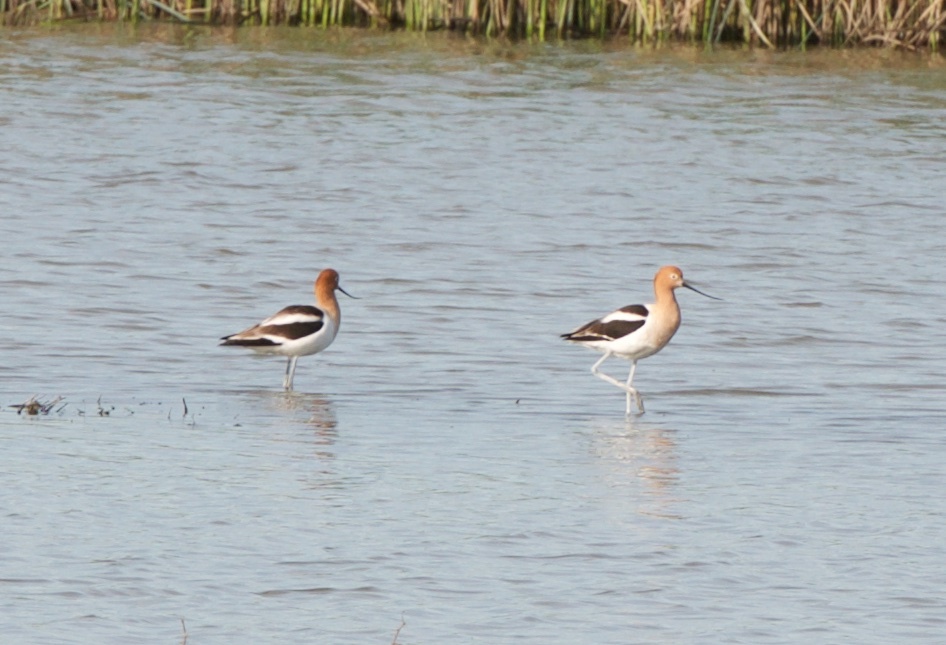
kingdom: Animalia
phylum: Chordata
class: Aves
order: Charadriiformes
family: Recurvirostridae
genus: Recurvirostra
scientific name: Recurvirostra americana
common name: American avocet
